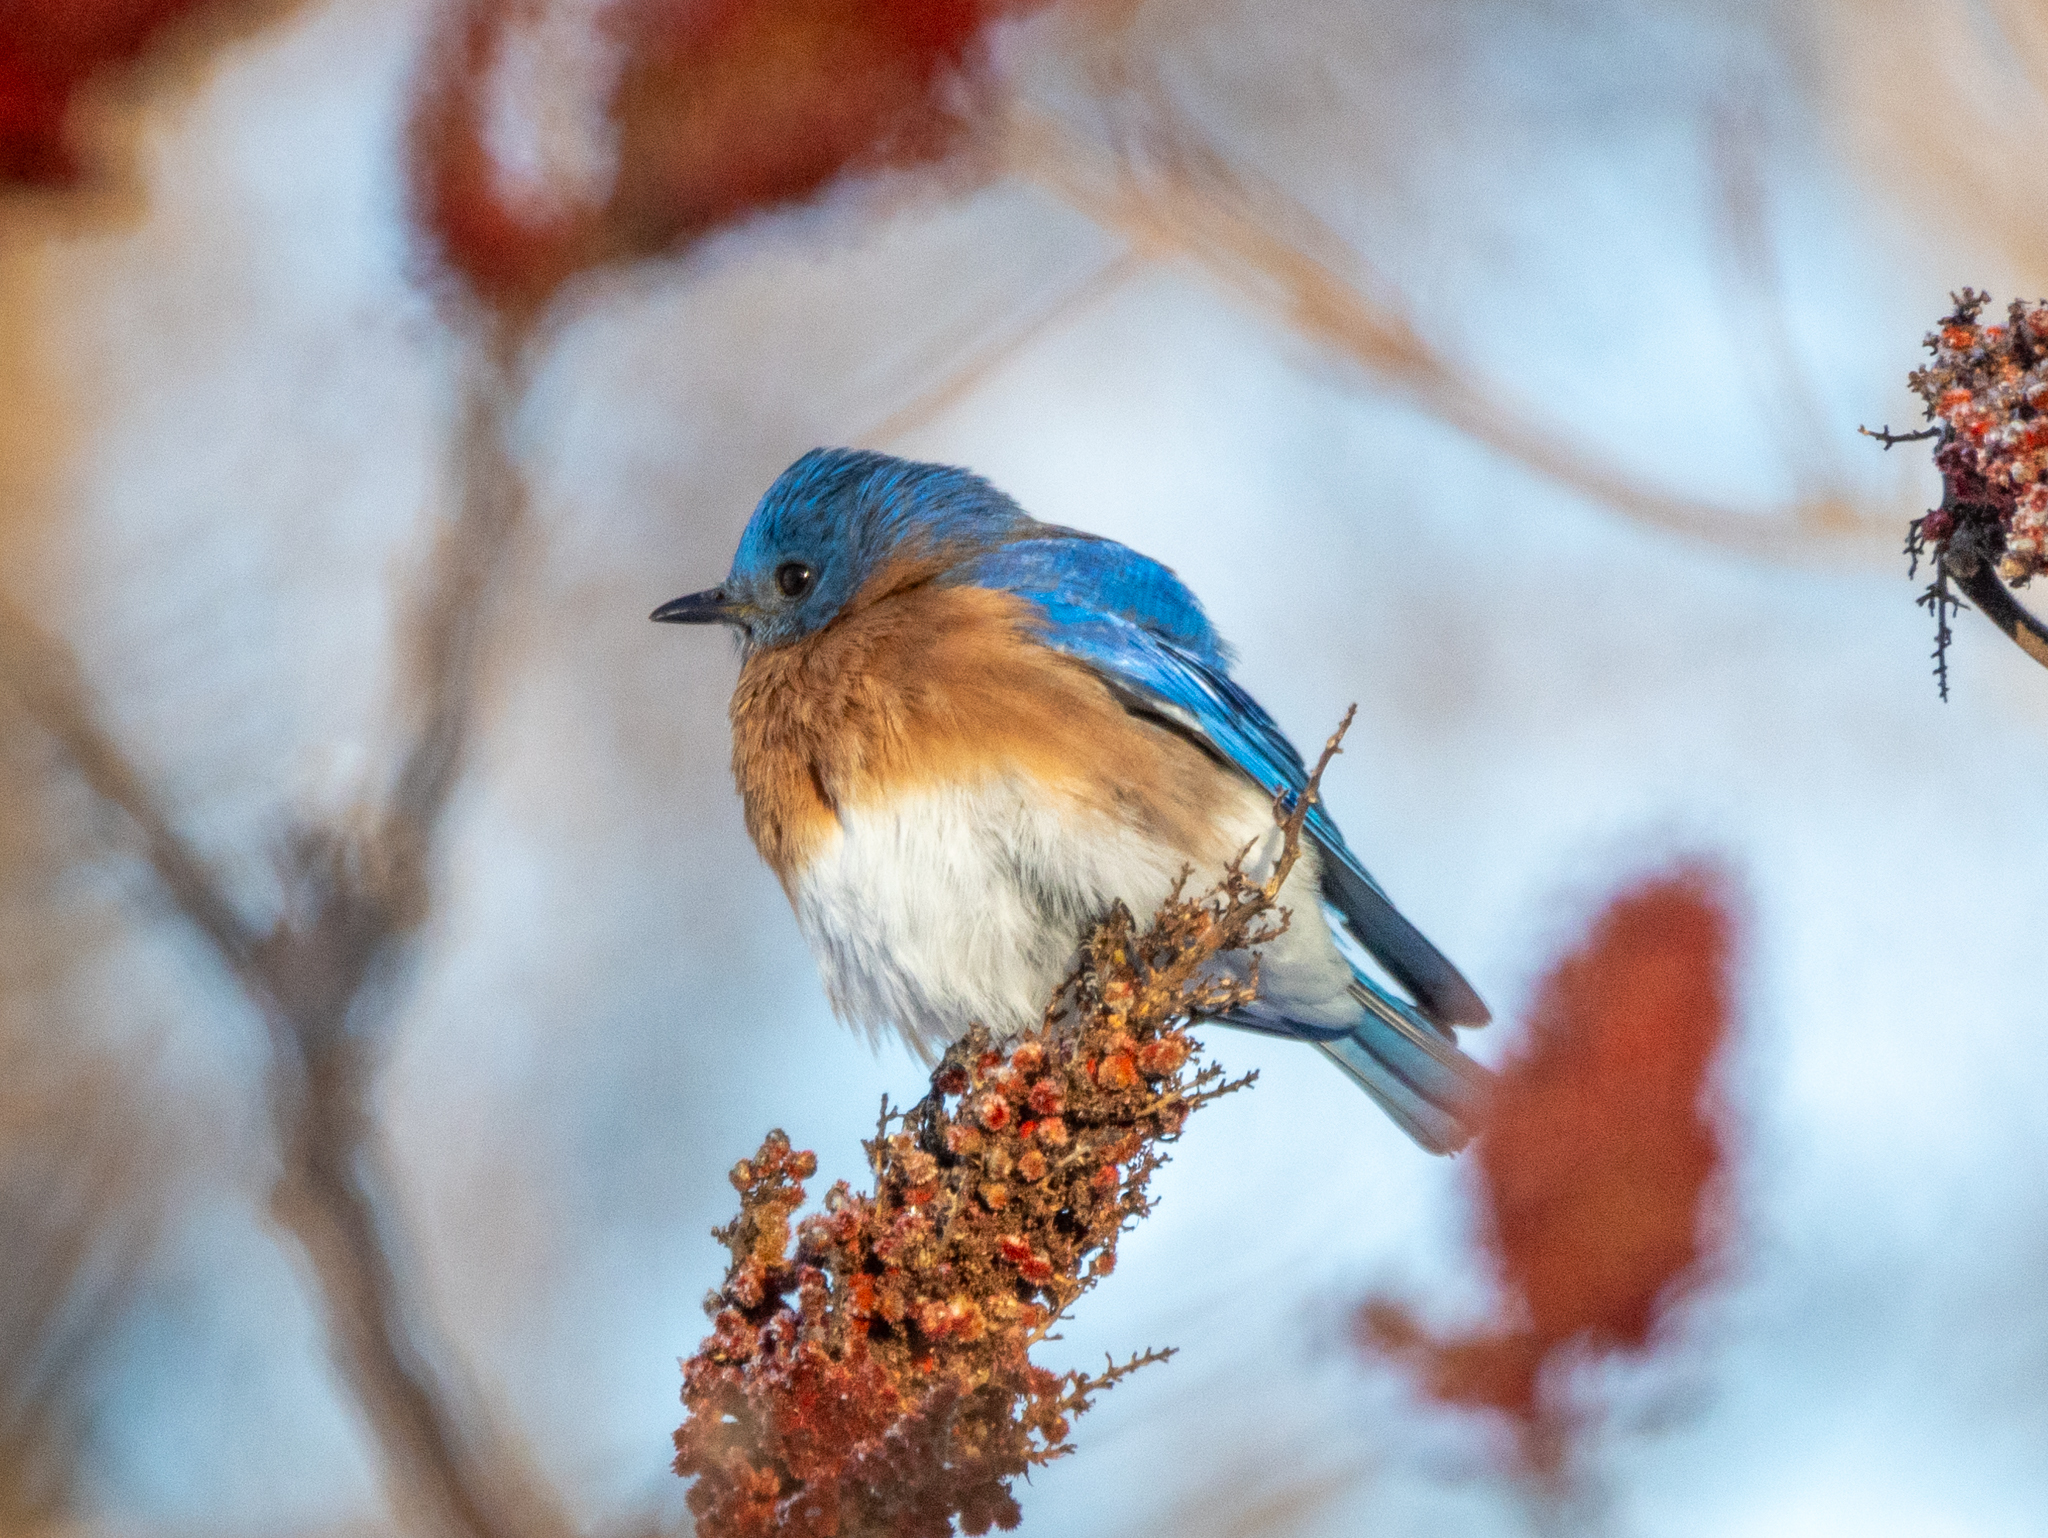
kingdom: Animalia
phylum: Chordata
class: Aves
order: Passeriformes
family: Turdidae
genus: Sialia
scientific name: Sialia sialis
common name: Eastern bluebird
